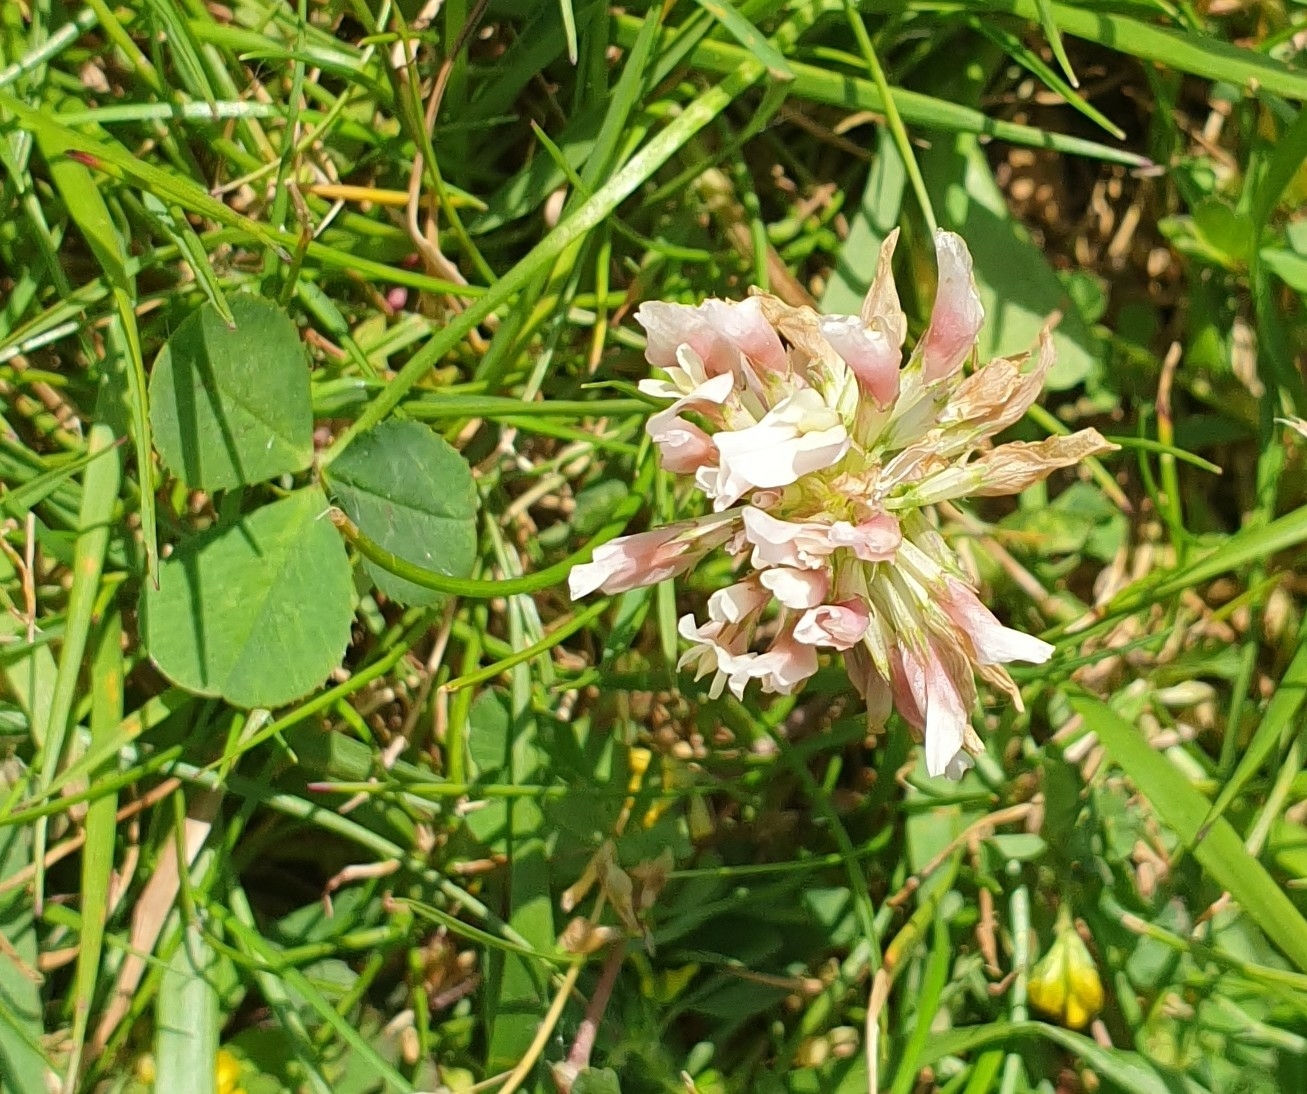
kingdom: Plantae
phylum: Tracheophyta
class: Magnoliopsida
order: Fabales
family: Fabaceae
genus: Trifolium
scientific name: Trifolium repens
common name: White clover
